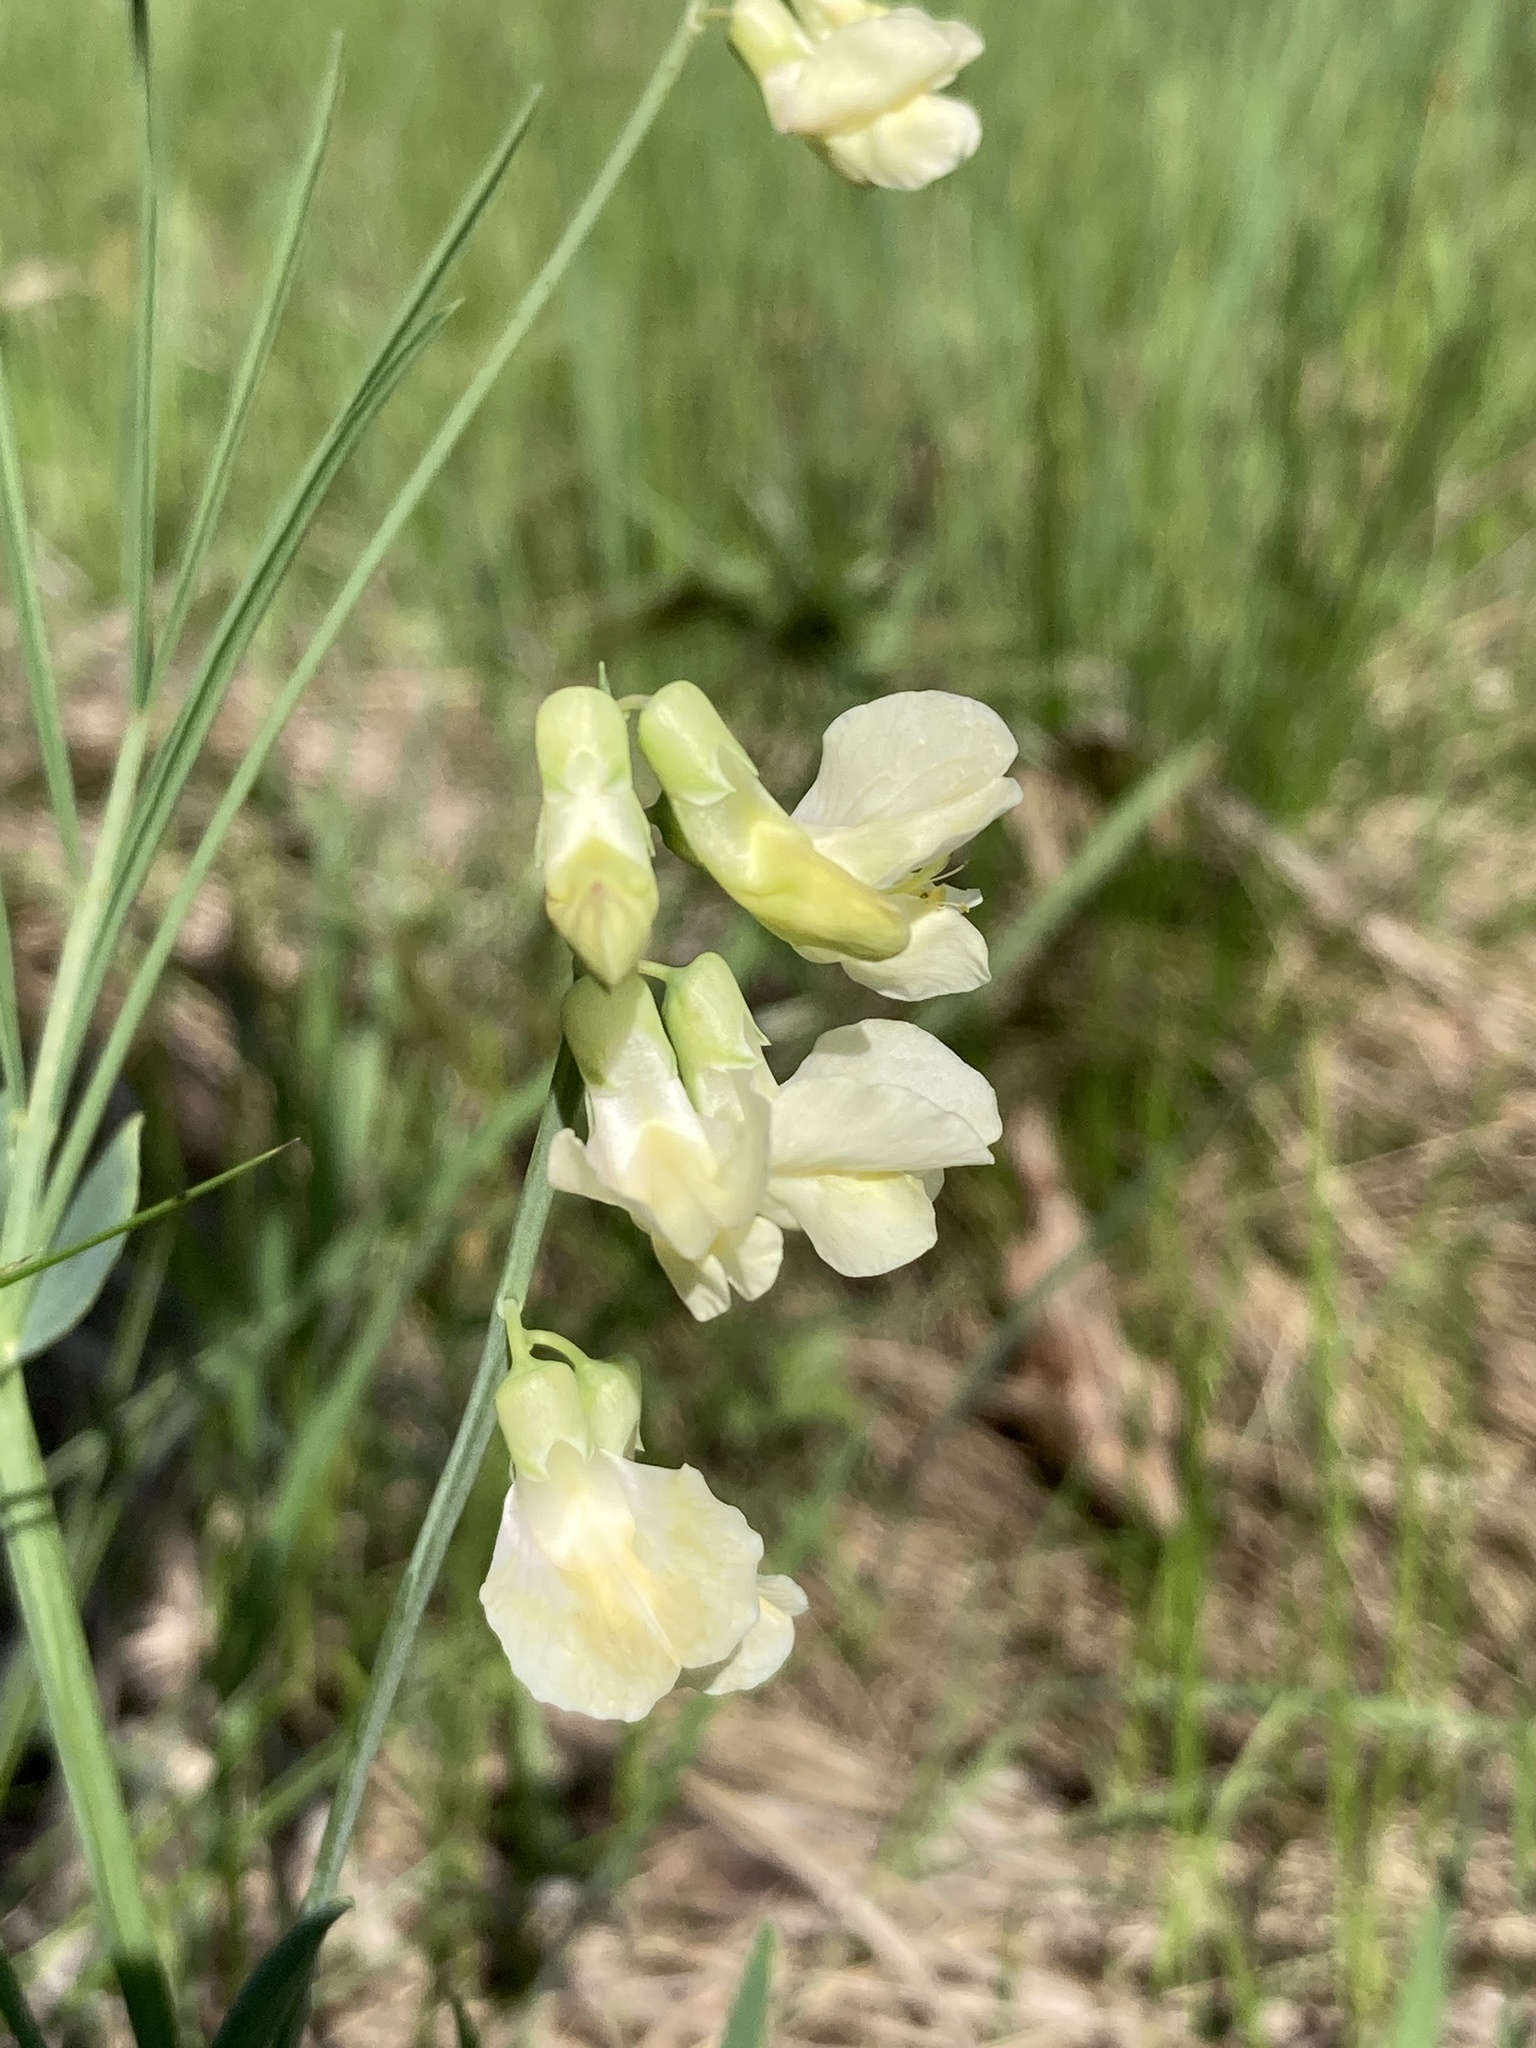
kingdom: Plantae
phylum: Tracheophyta
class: Magnoliopsida
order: Fabales
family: Fabaceae
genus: Lathyrus
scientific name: Lathyrus pannonicus
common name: Pea
